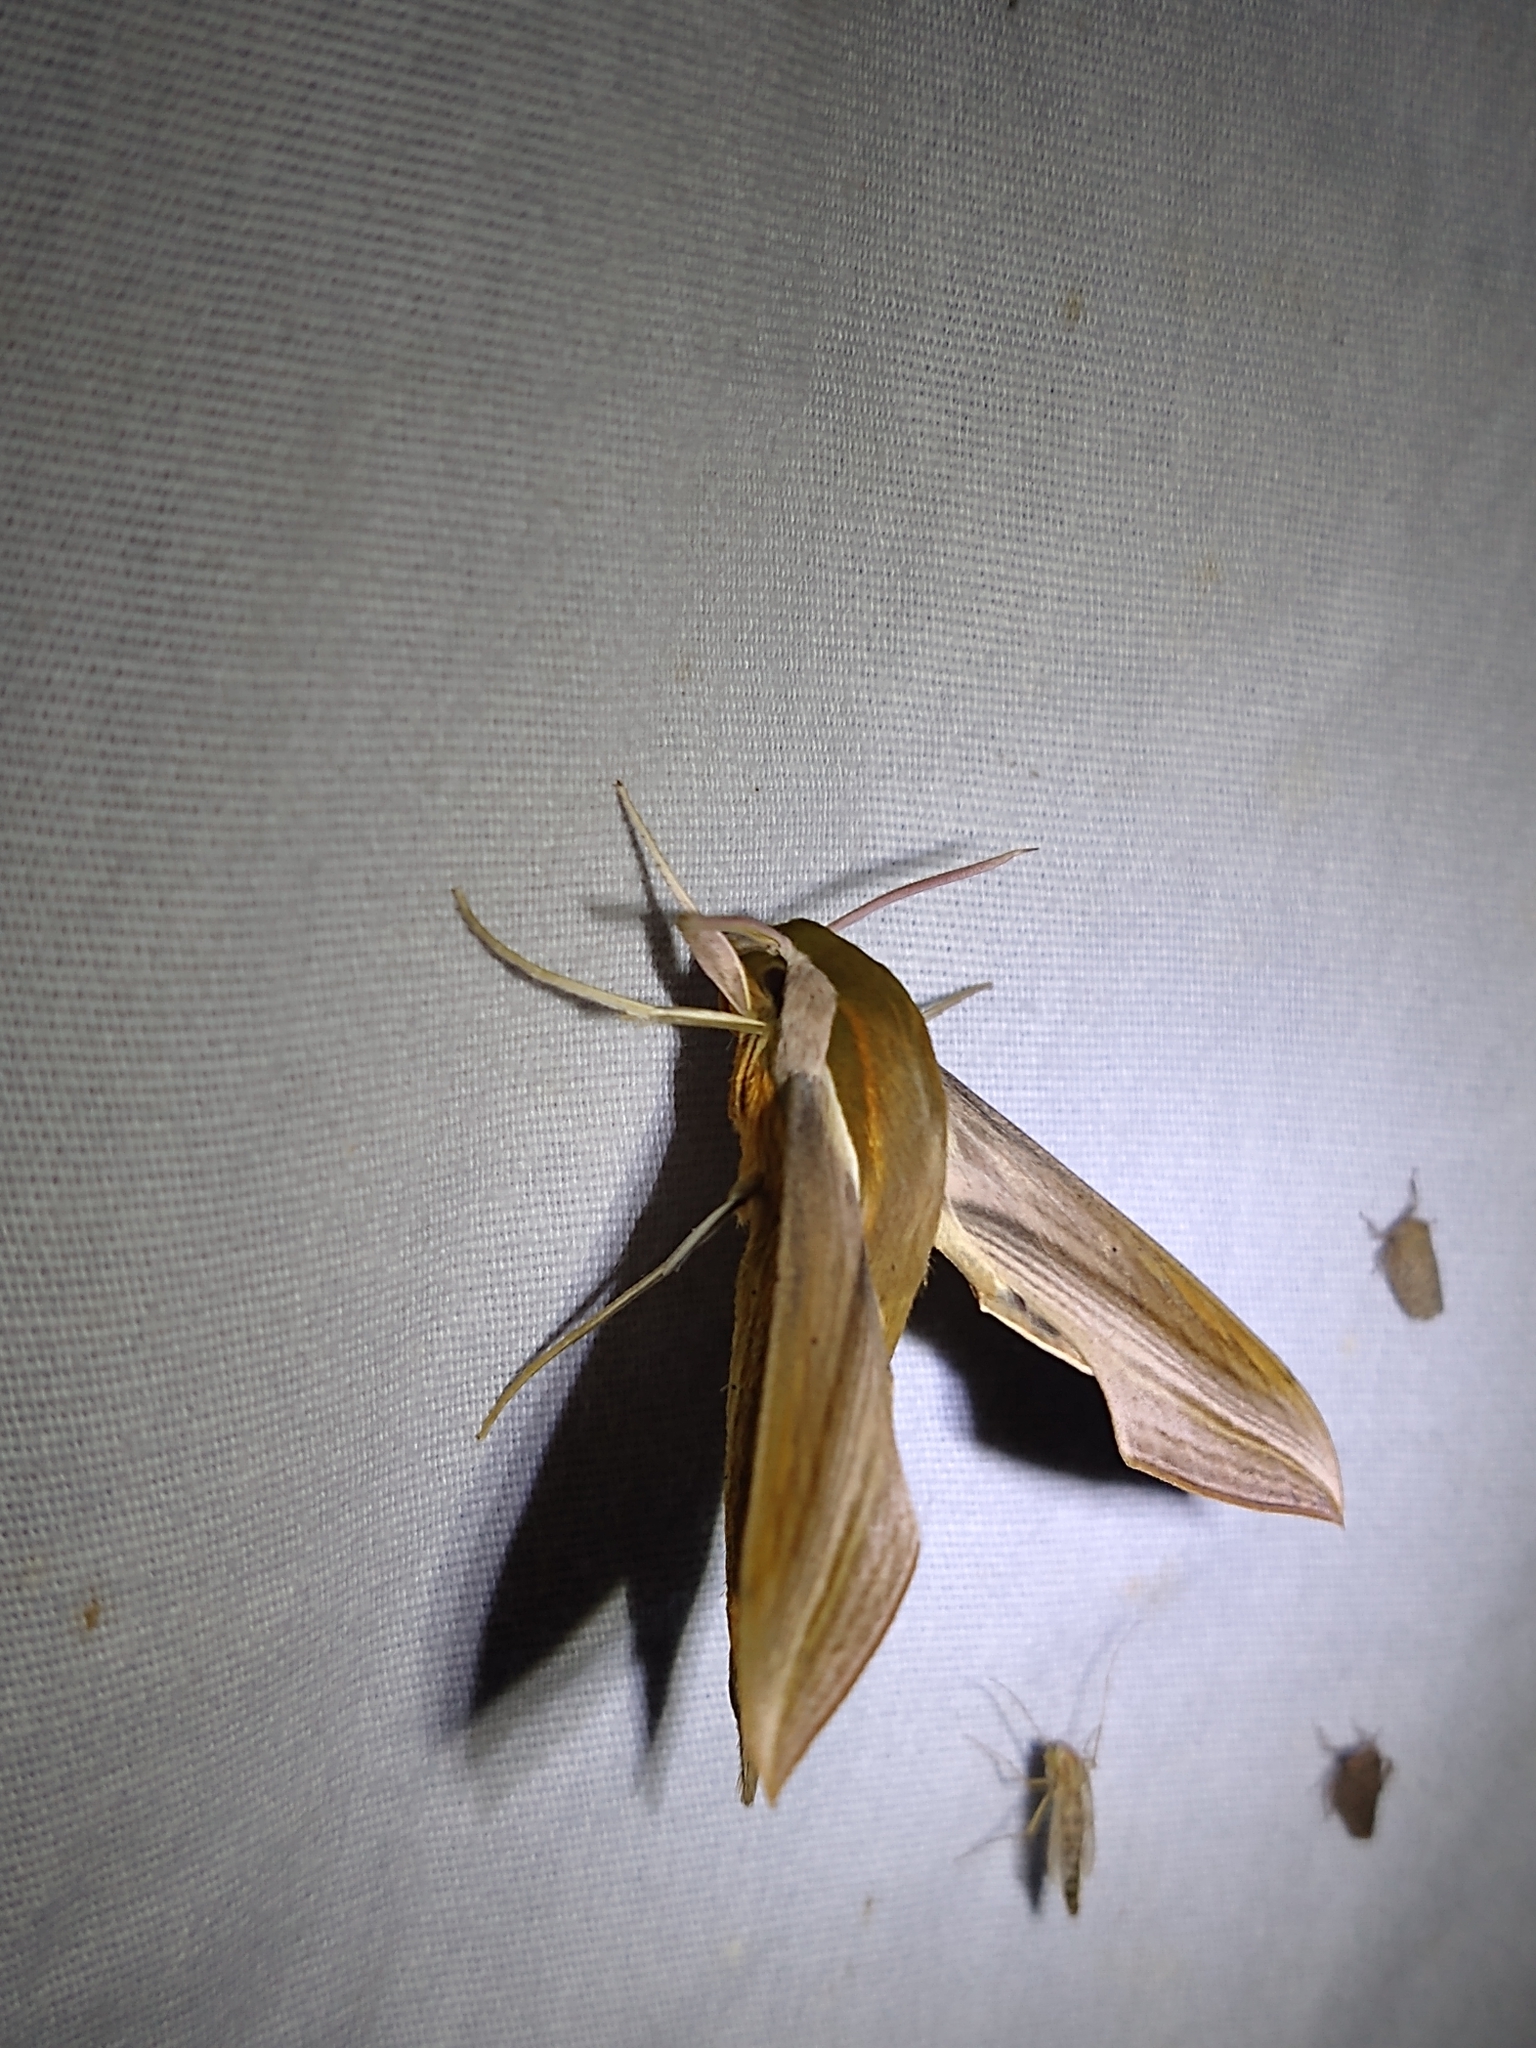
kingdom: Animalia
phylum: Arthropoda
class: Insecta
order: Lepidoptera
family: Sphingidae
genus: Xylophanes
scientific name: Xylophanes tersa
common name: Tersa sphinx
